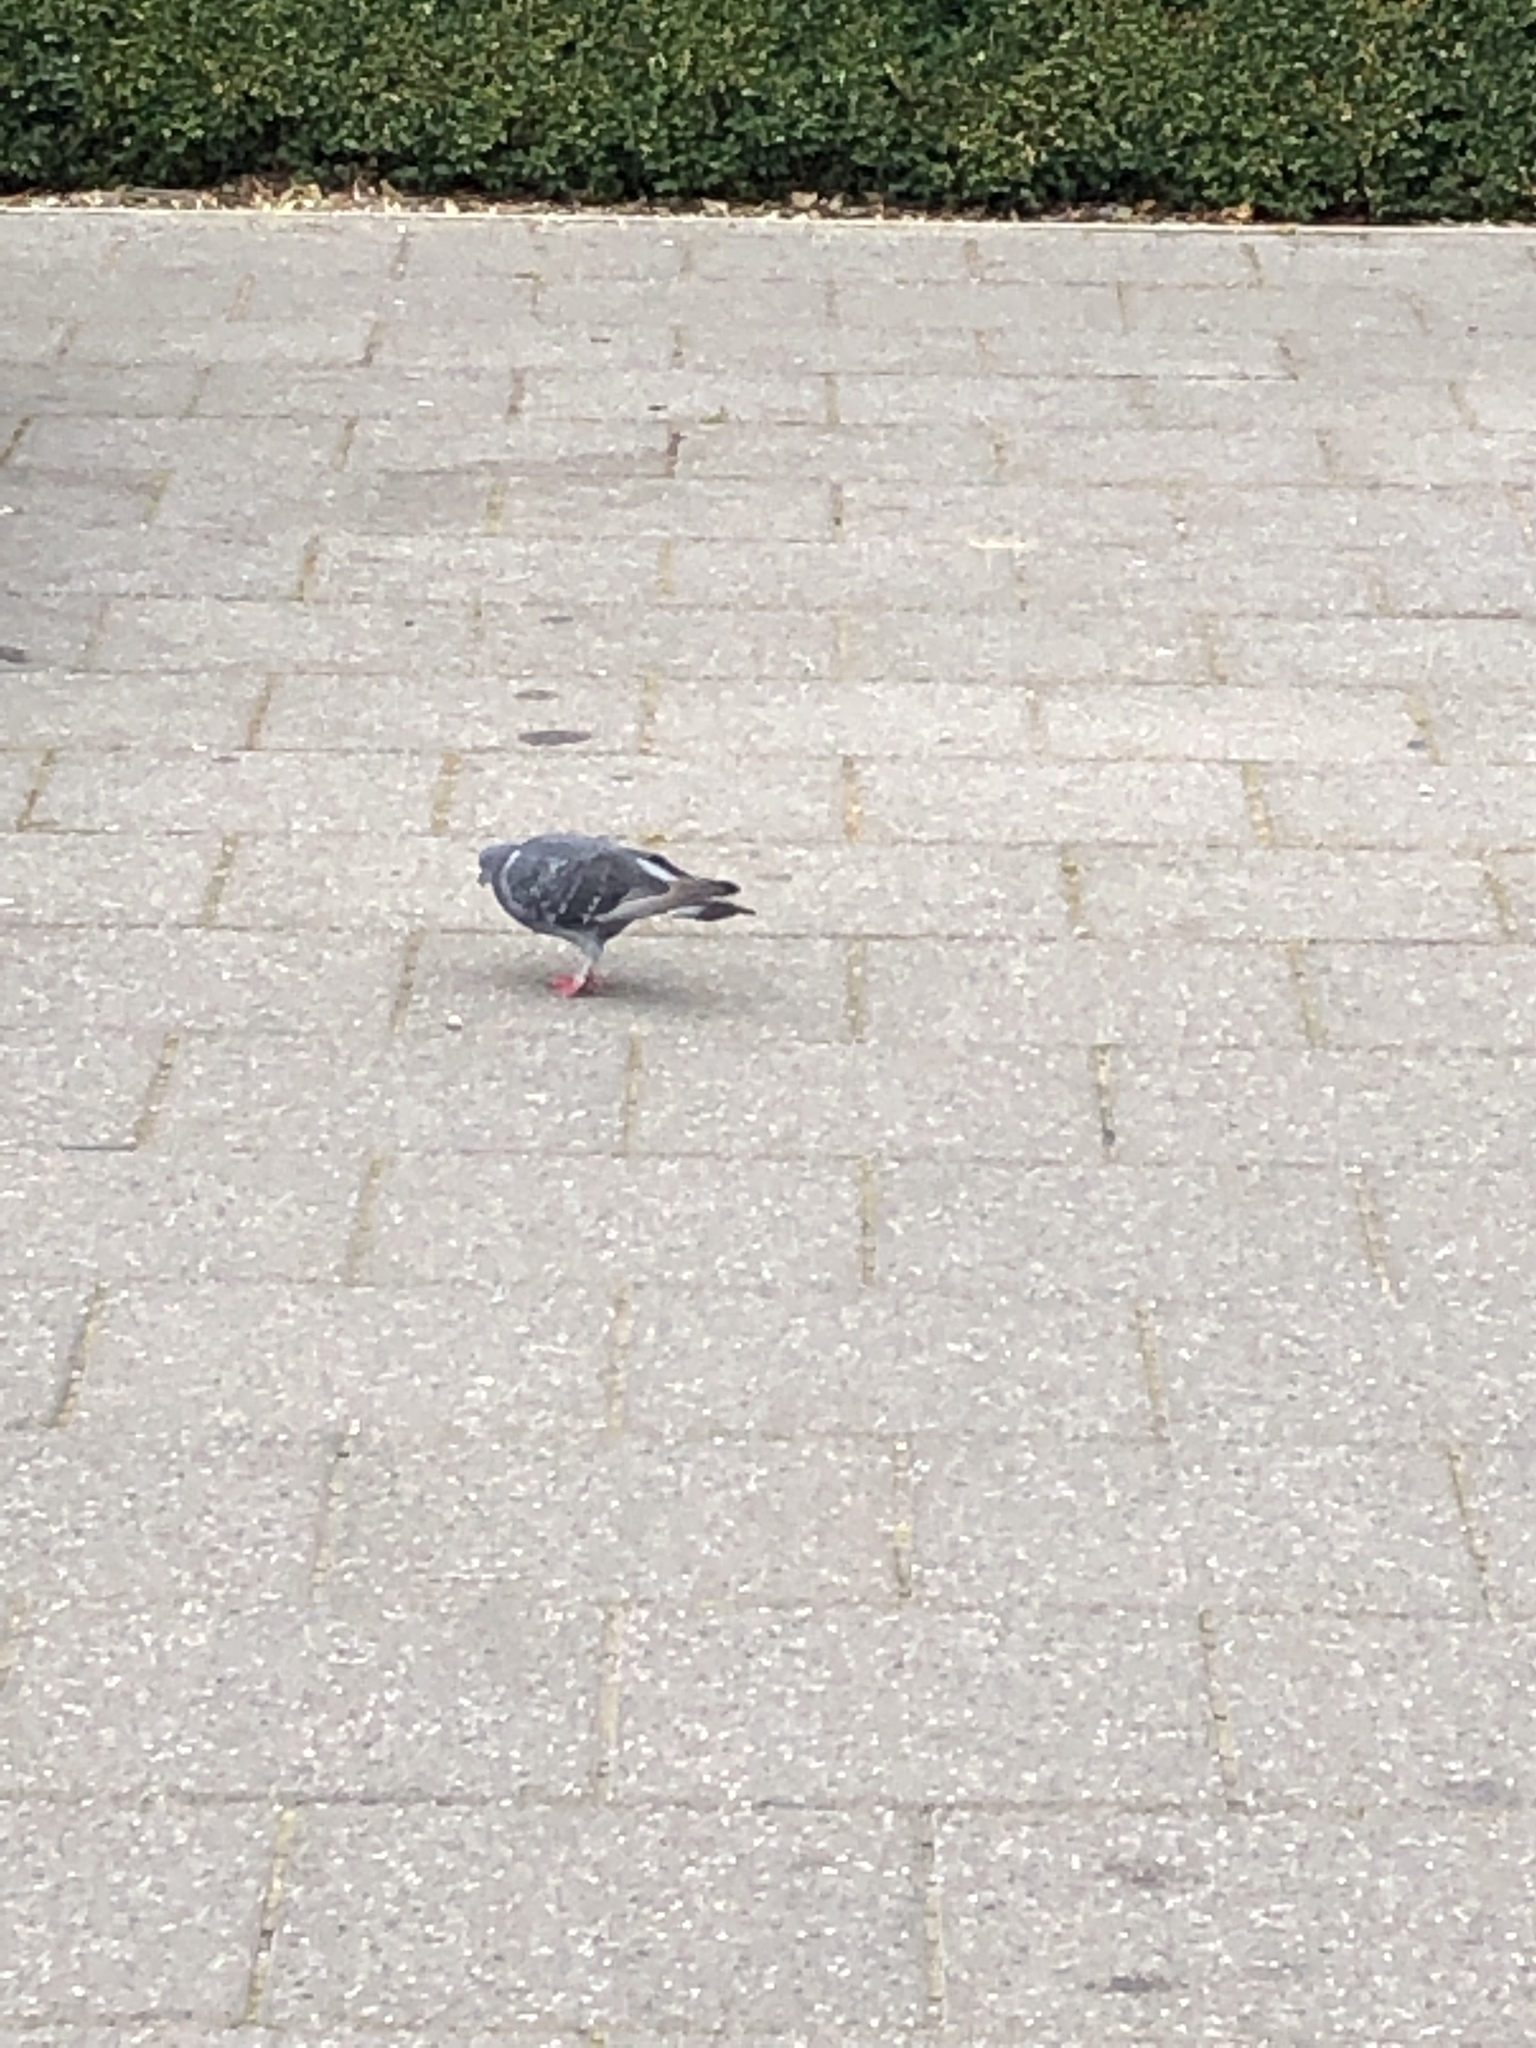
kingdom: Animalia
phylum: Chordata
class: Aves
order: Columbiformes
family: Columbidae
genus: Columba
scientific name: Columba livia
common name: Rock pigeon
